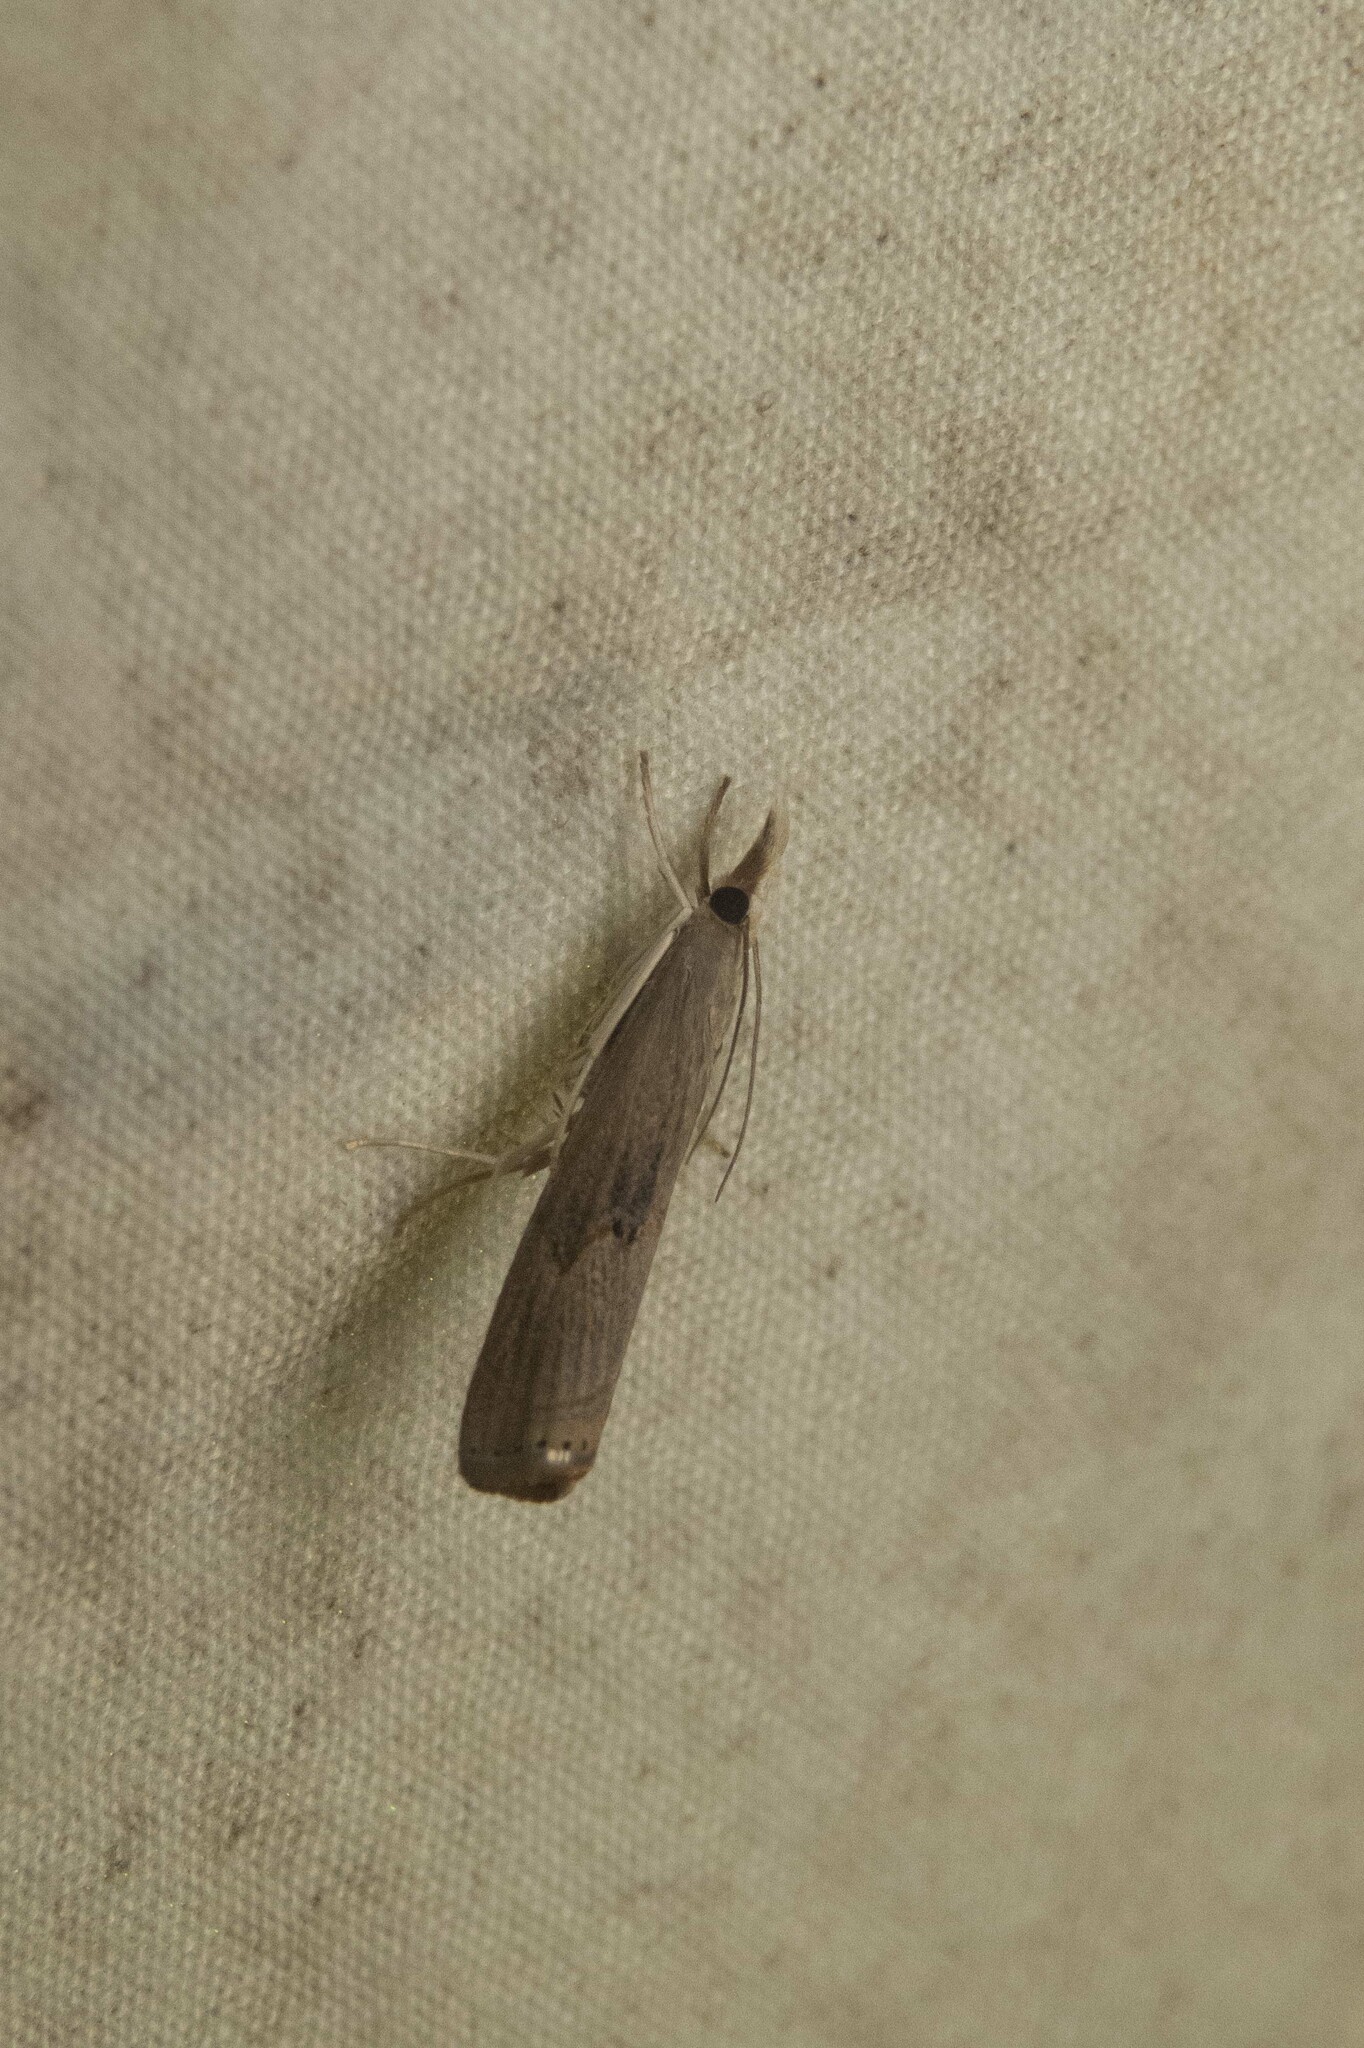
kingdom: Animalia
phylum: Arthropoda
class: Insecta
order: Lepidoptera
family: Crambidae
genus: Parapediasia
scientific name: Parapediasia teterellus
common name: Bluegrass webworm moth
